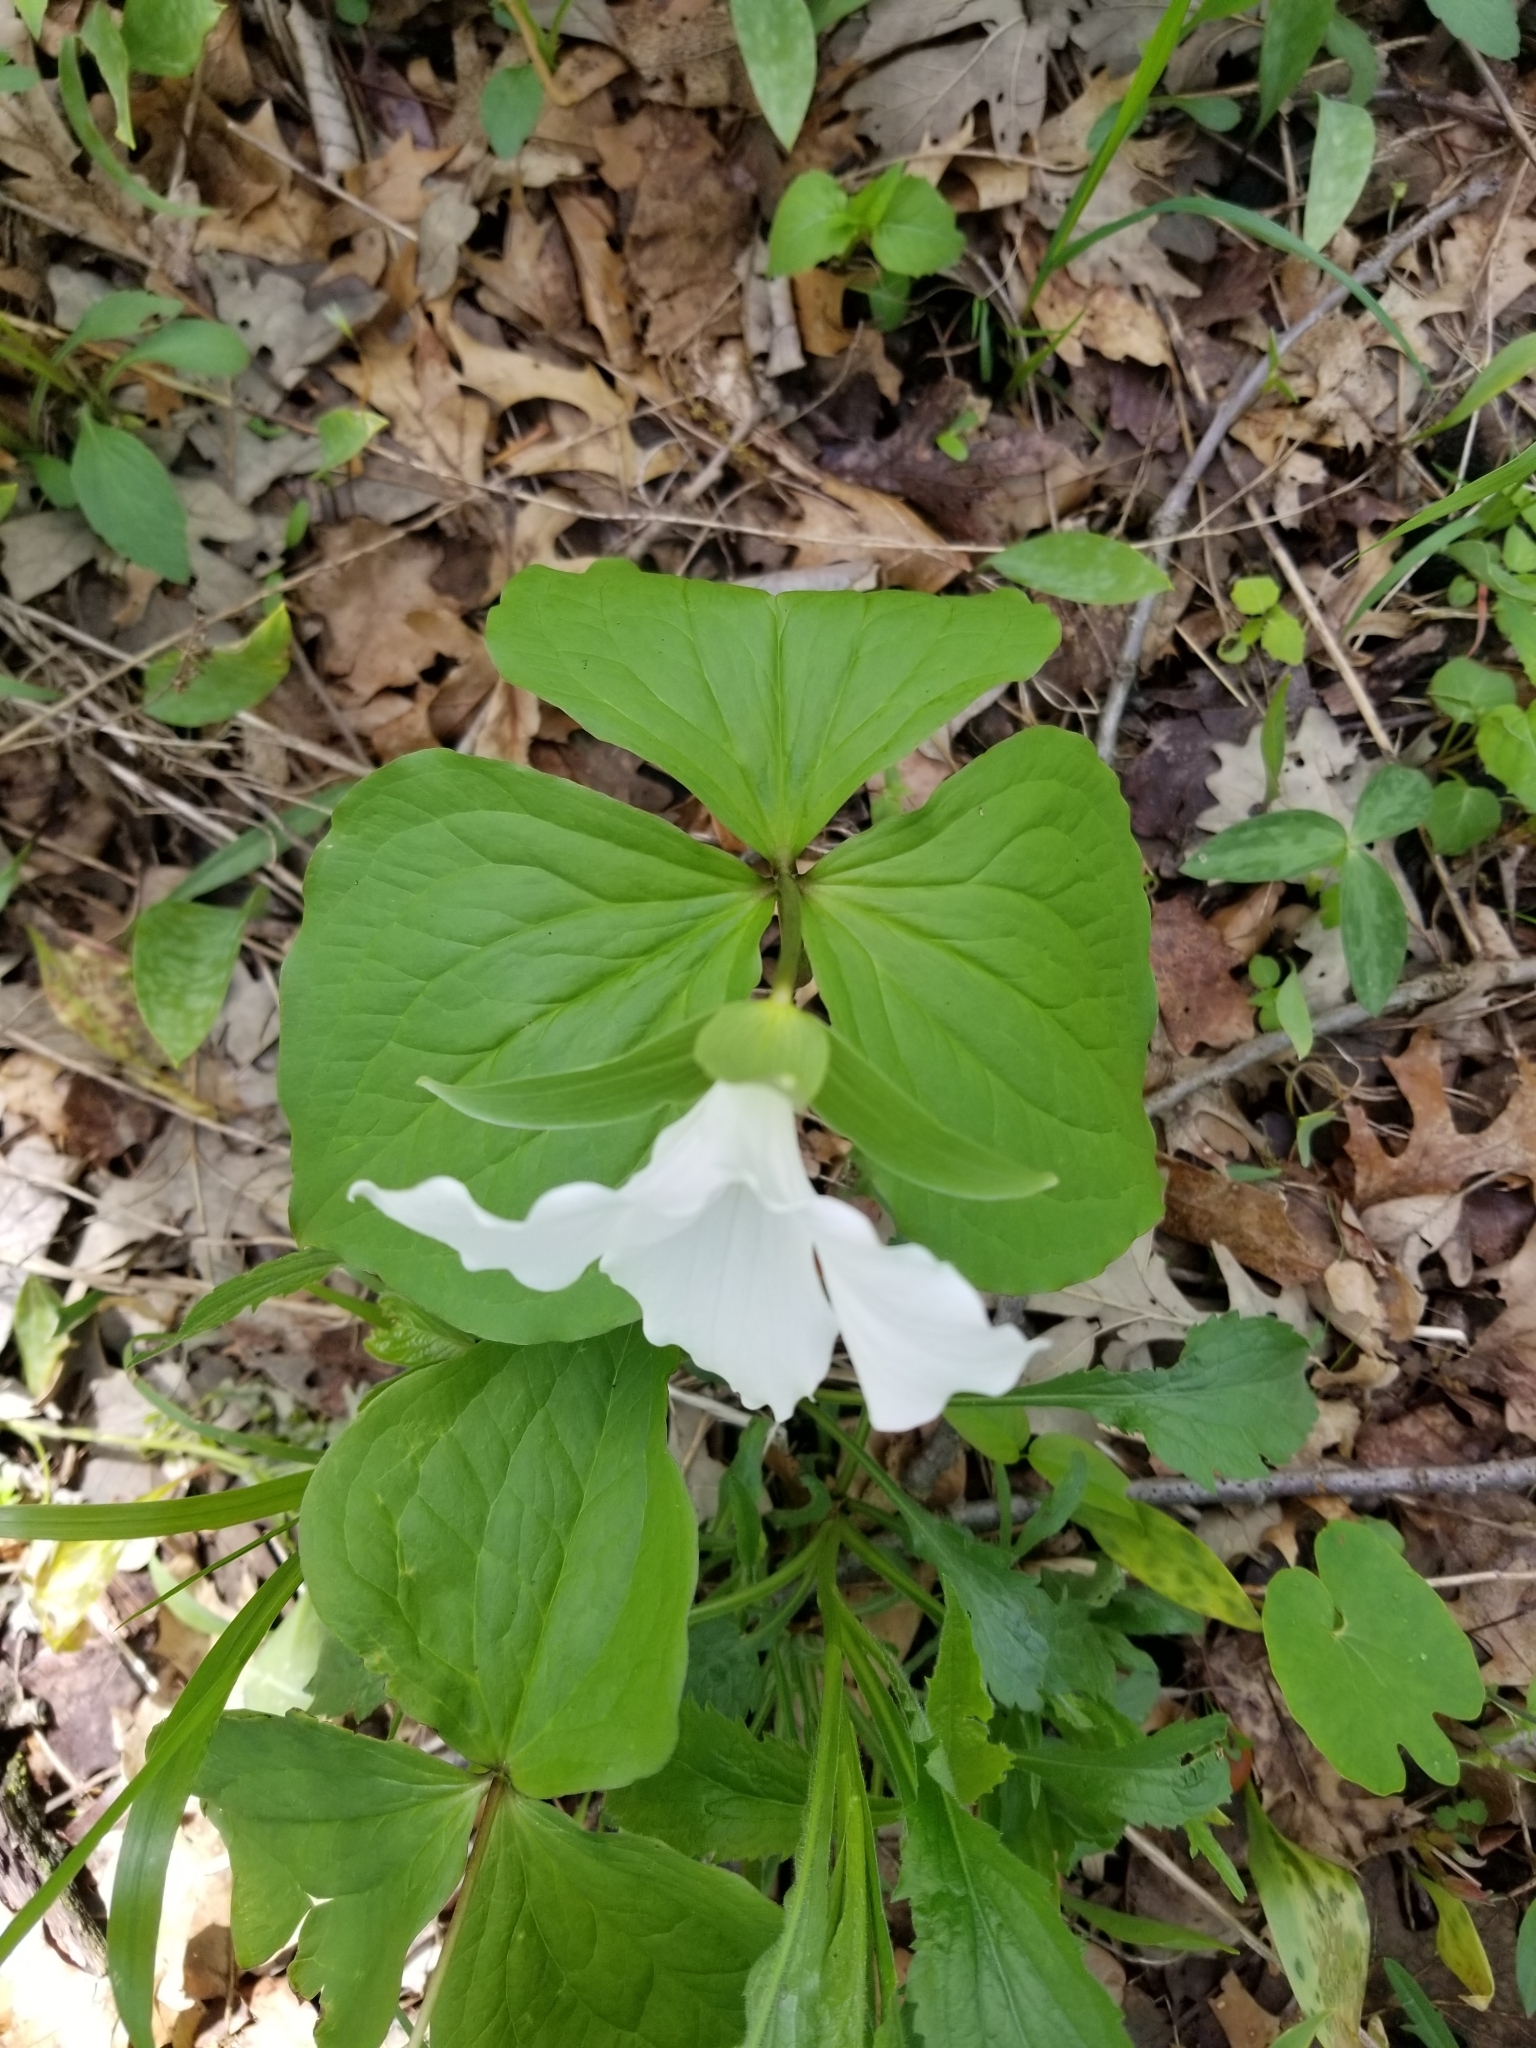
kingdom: Plantae
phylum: Tracheophyta
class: Liliopsida
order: Liliales
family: Melanthiaceae
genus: Trillium
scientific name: Trillium grandiflorum
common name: Great white trillium
